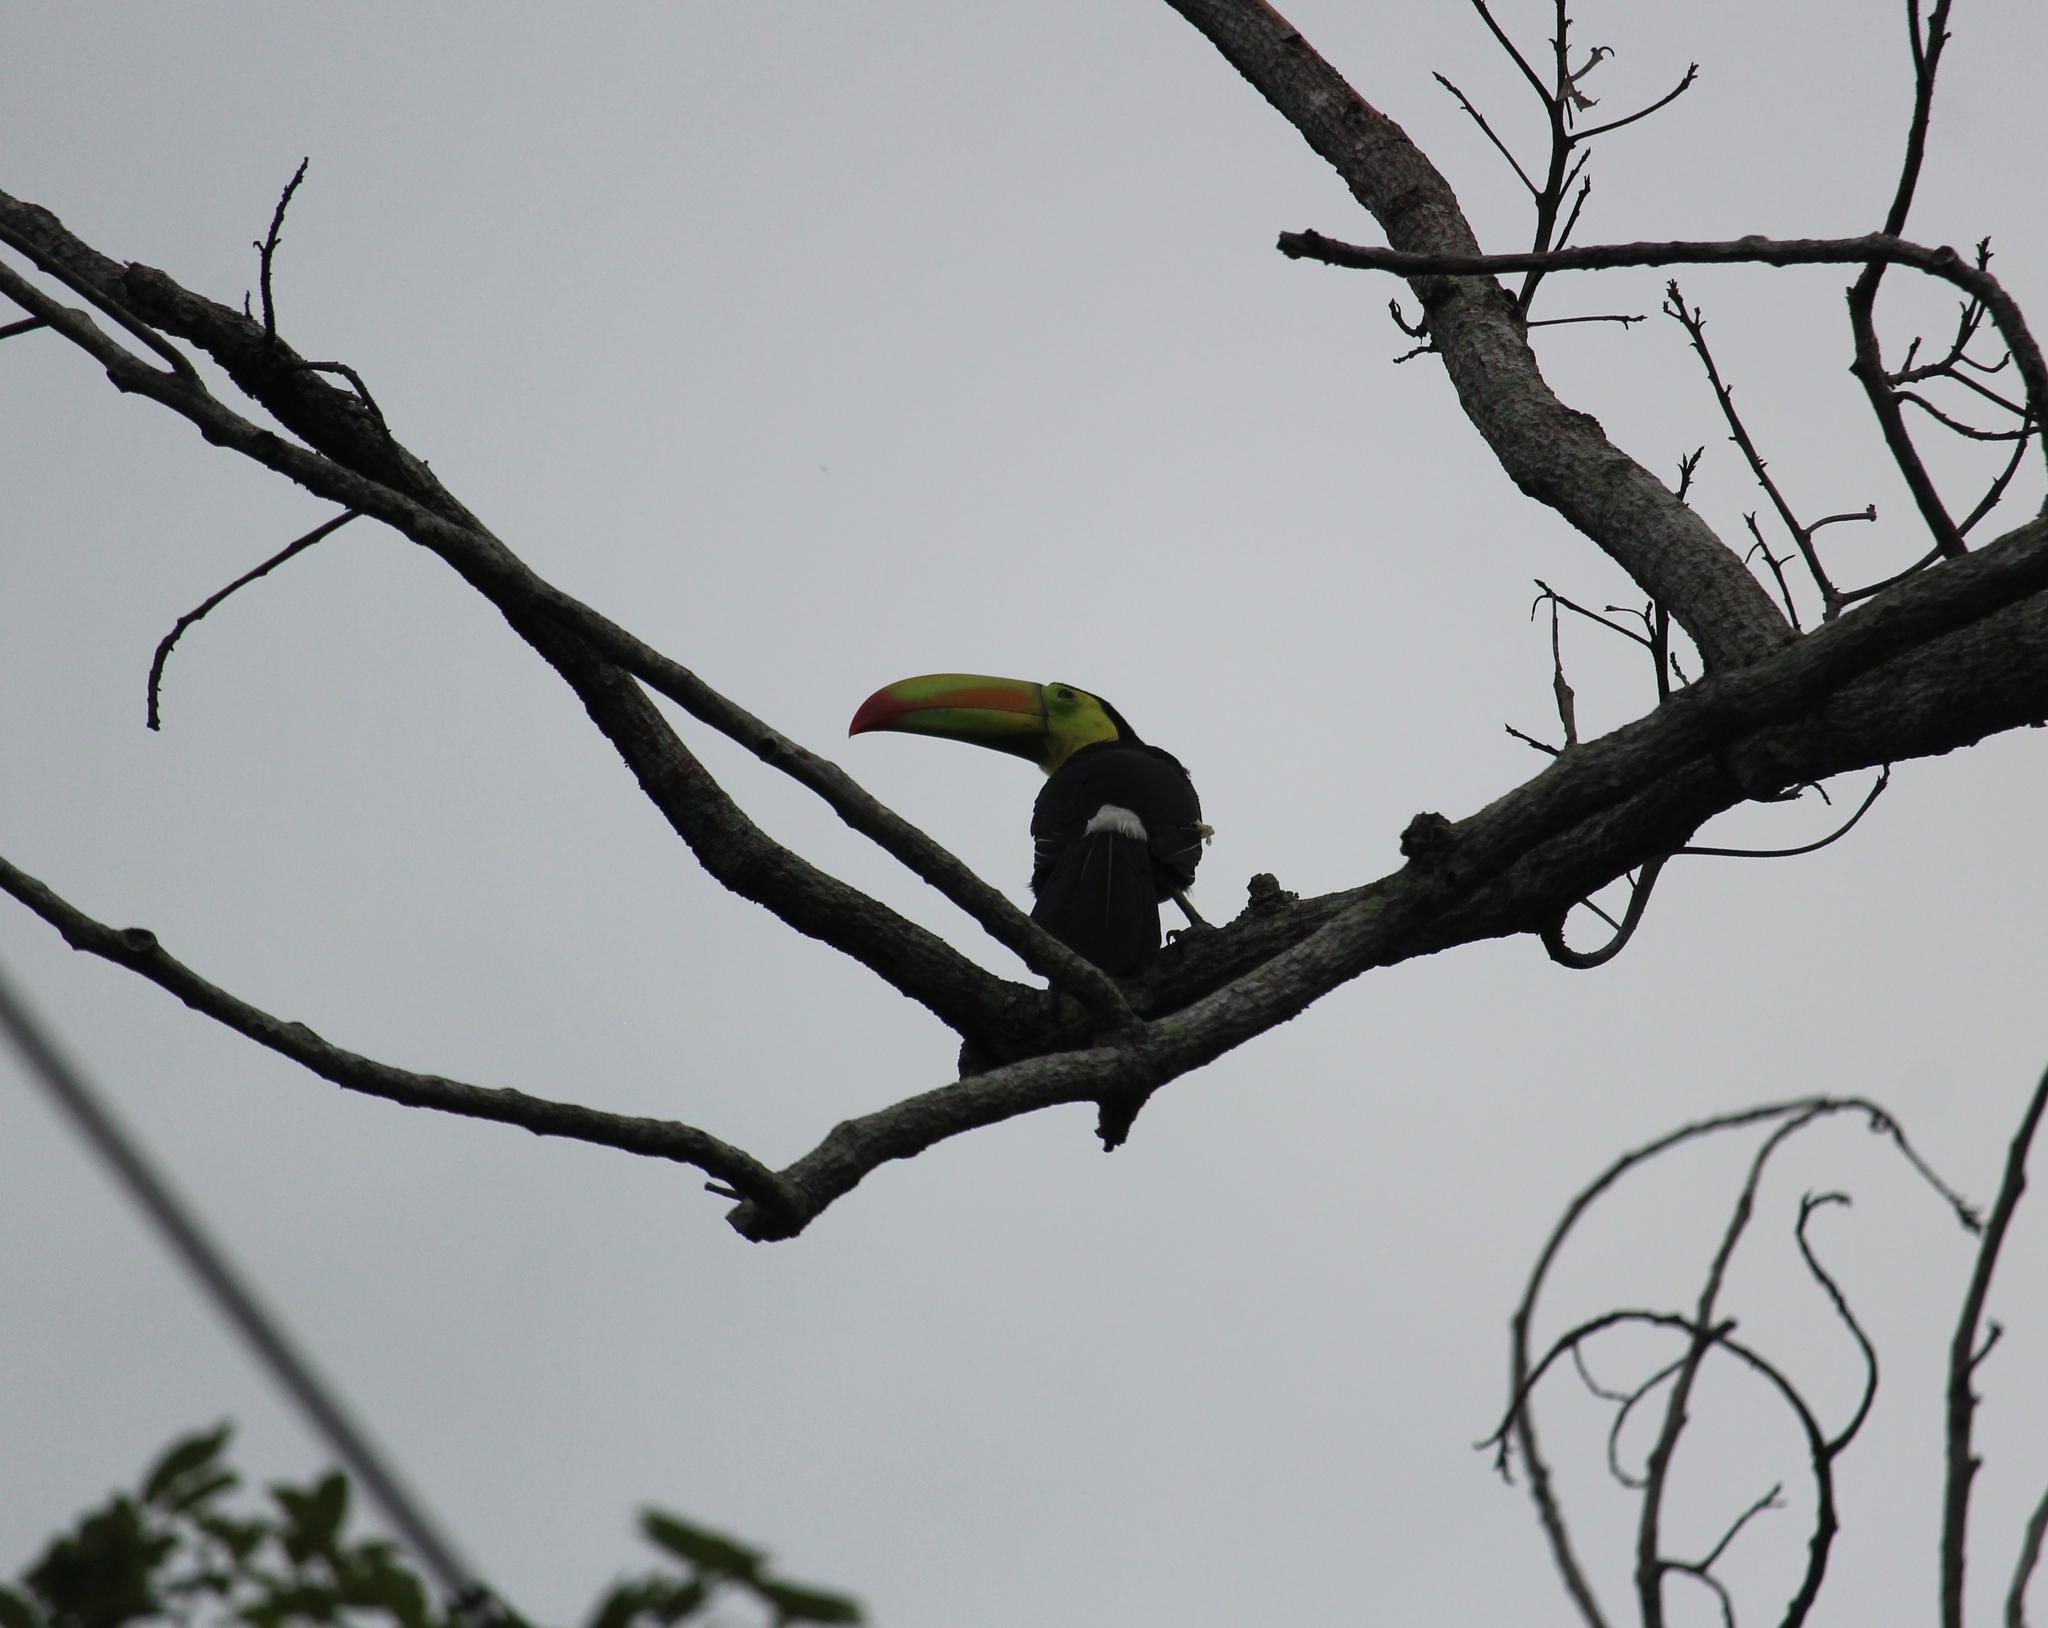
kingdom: Animalia
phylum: Chordata
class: Aves
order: Piciformes
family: Ramphastidae
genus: Ramphastos
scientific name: Ramphastos sulfuratus
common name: Keel-billed toucan
